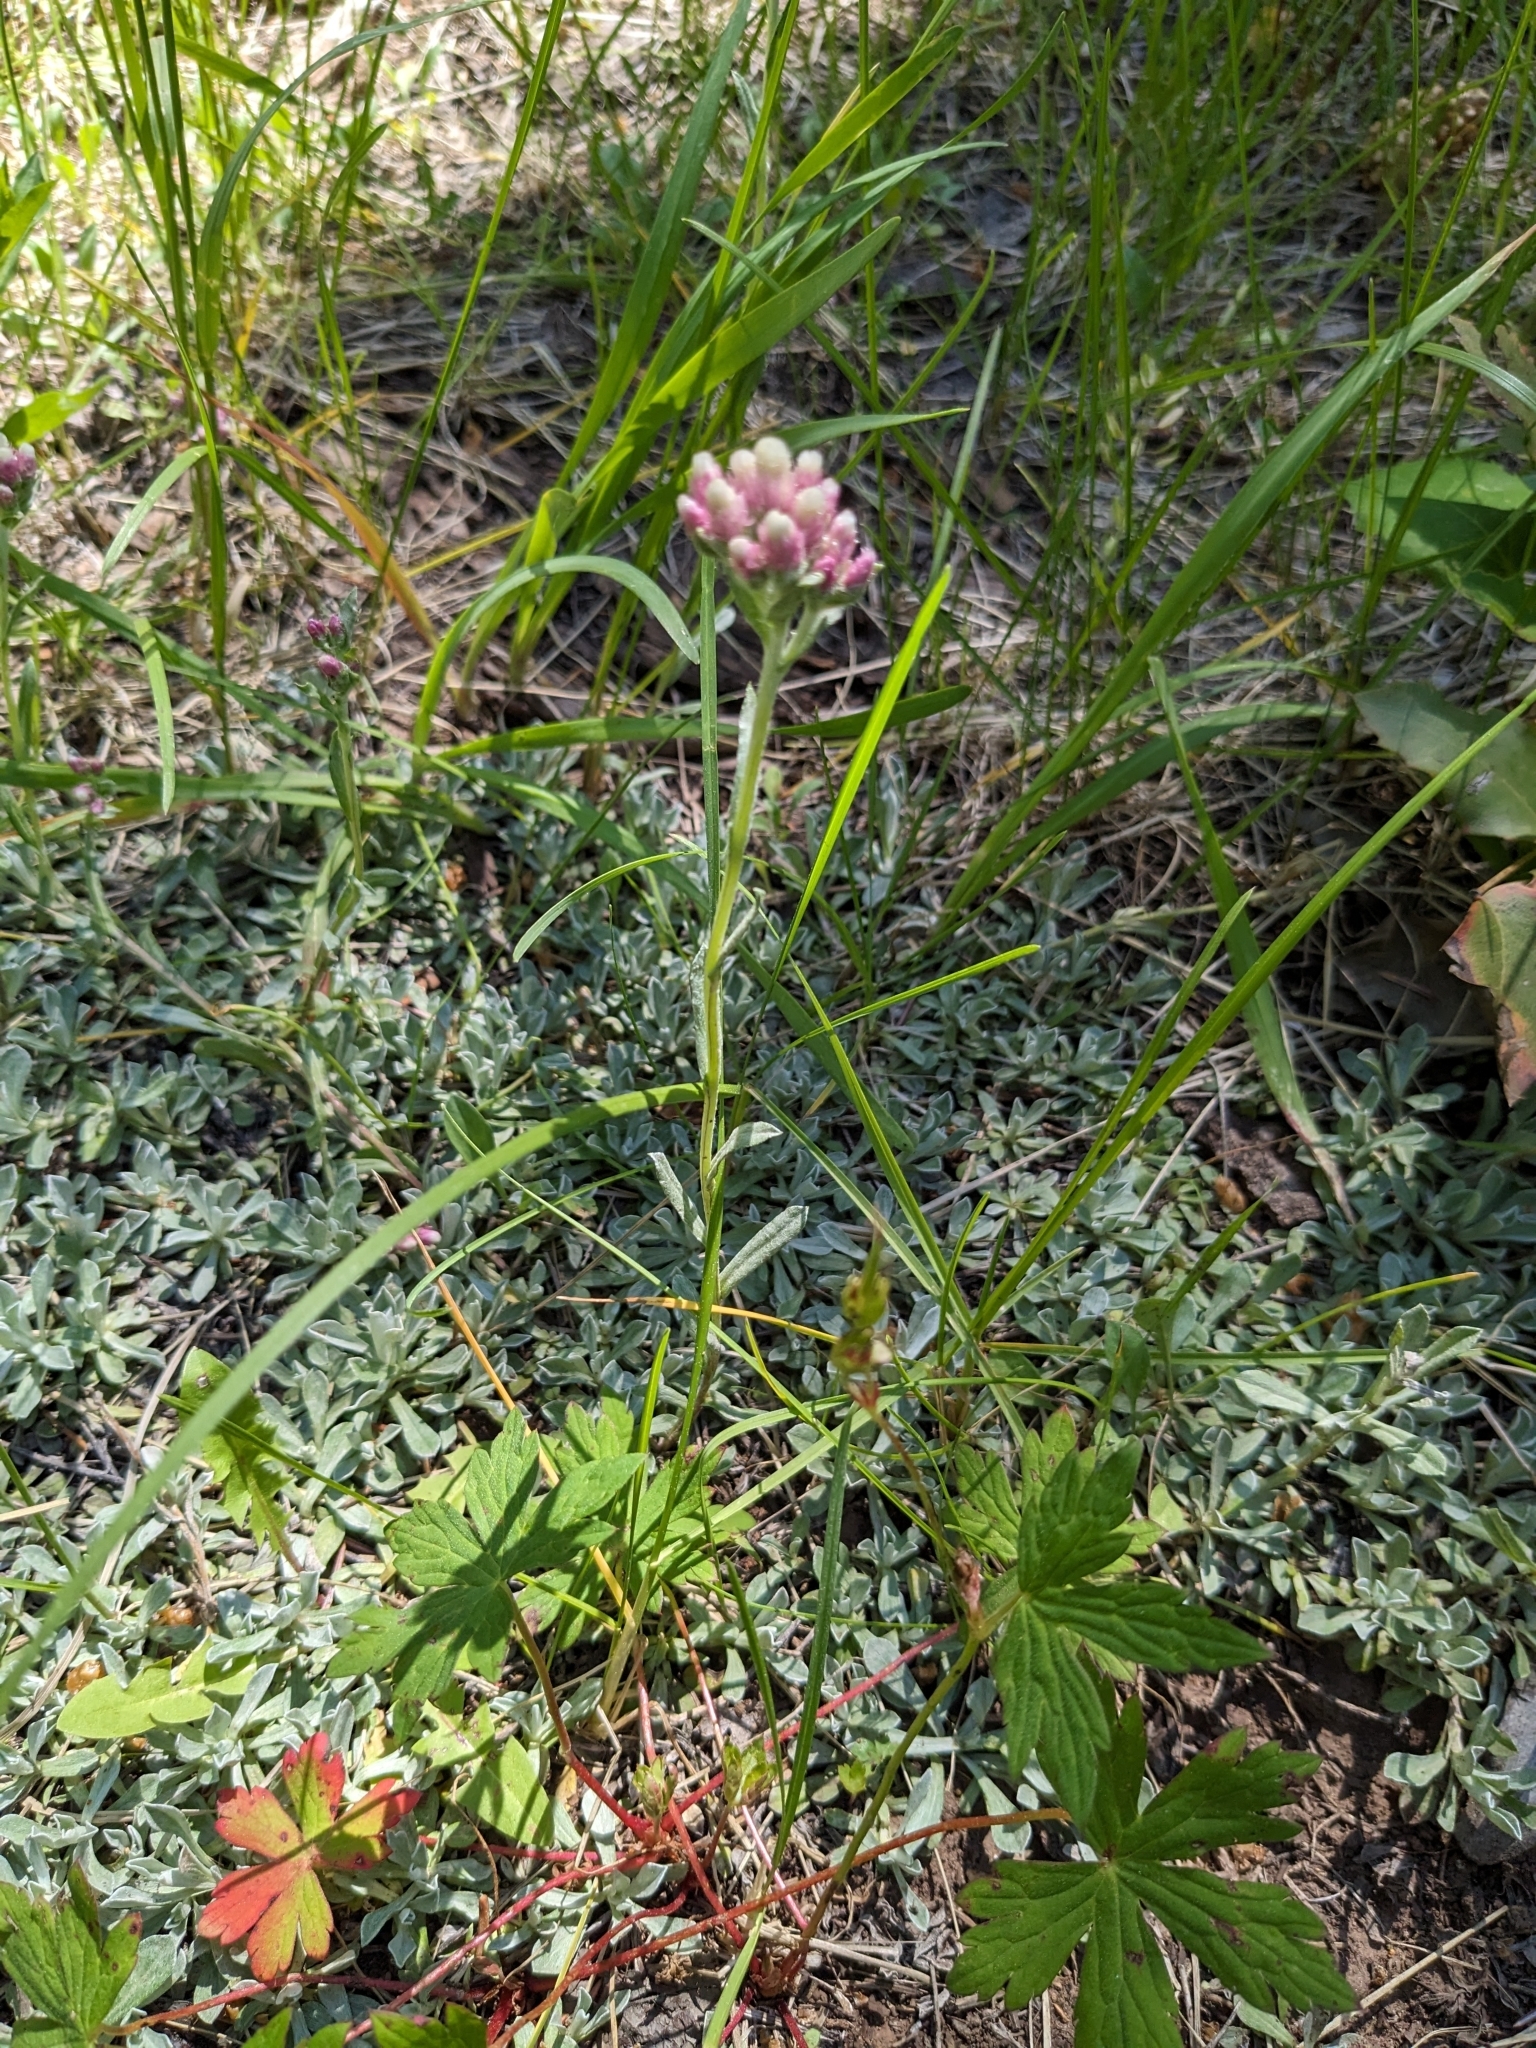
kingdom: Plantae
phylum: Tracheophyta
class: Magnoliopsida
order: Asterales
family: Asteraceae
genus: Antennaria
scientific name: Antennaria rosea
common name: Rosy pussytoes
